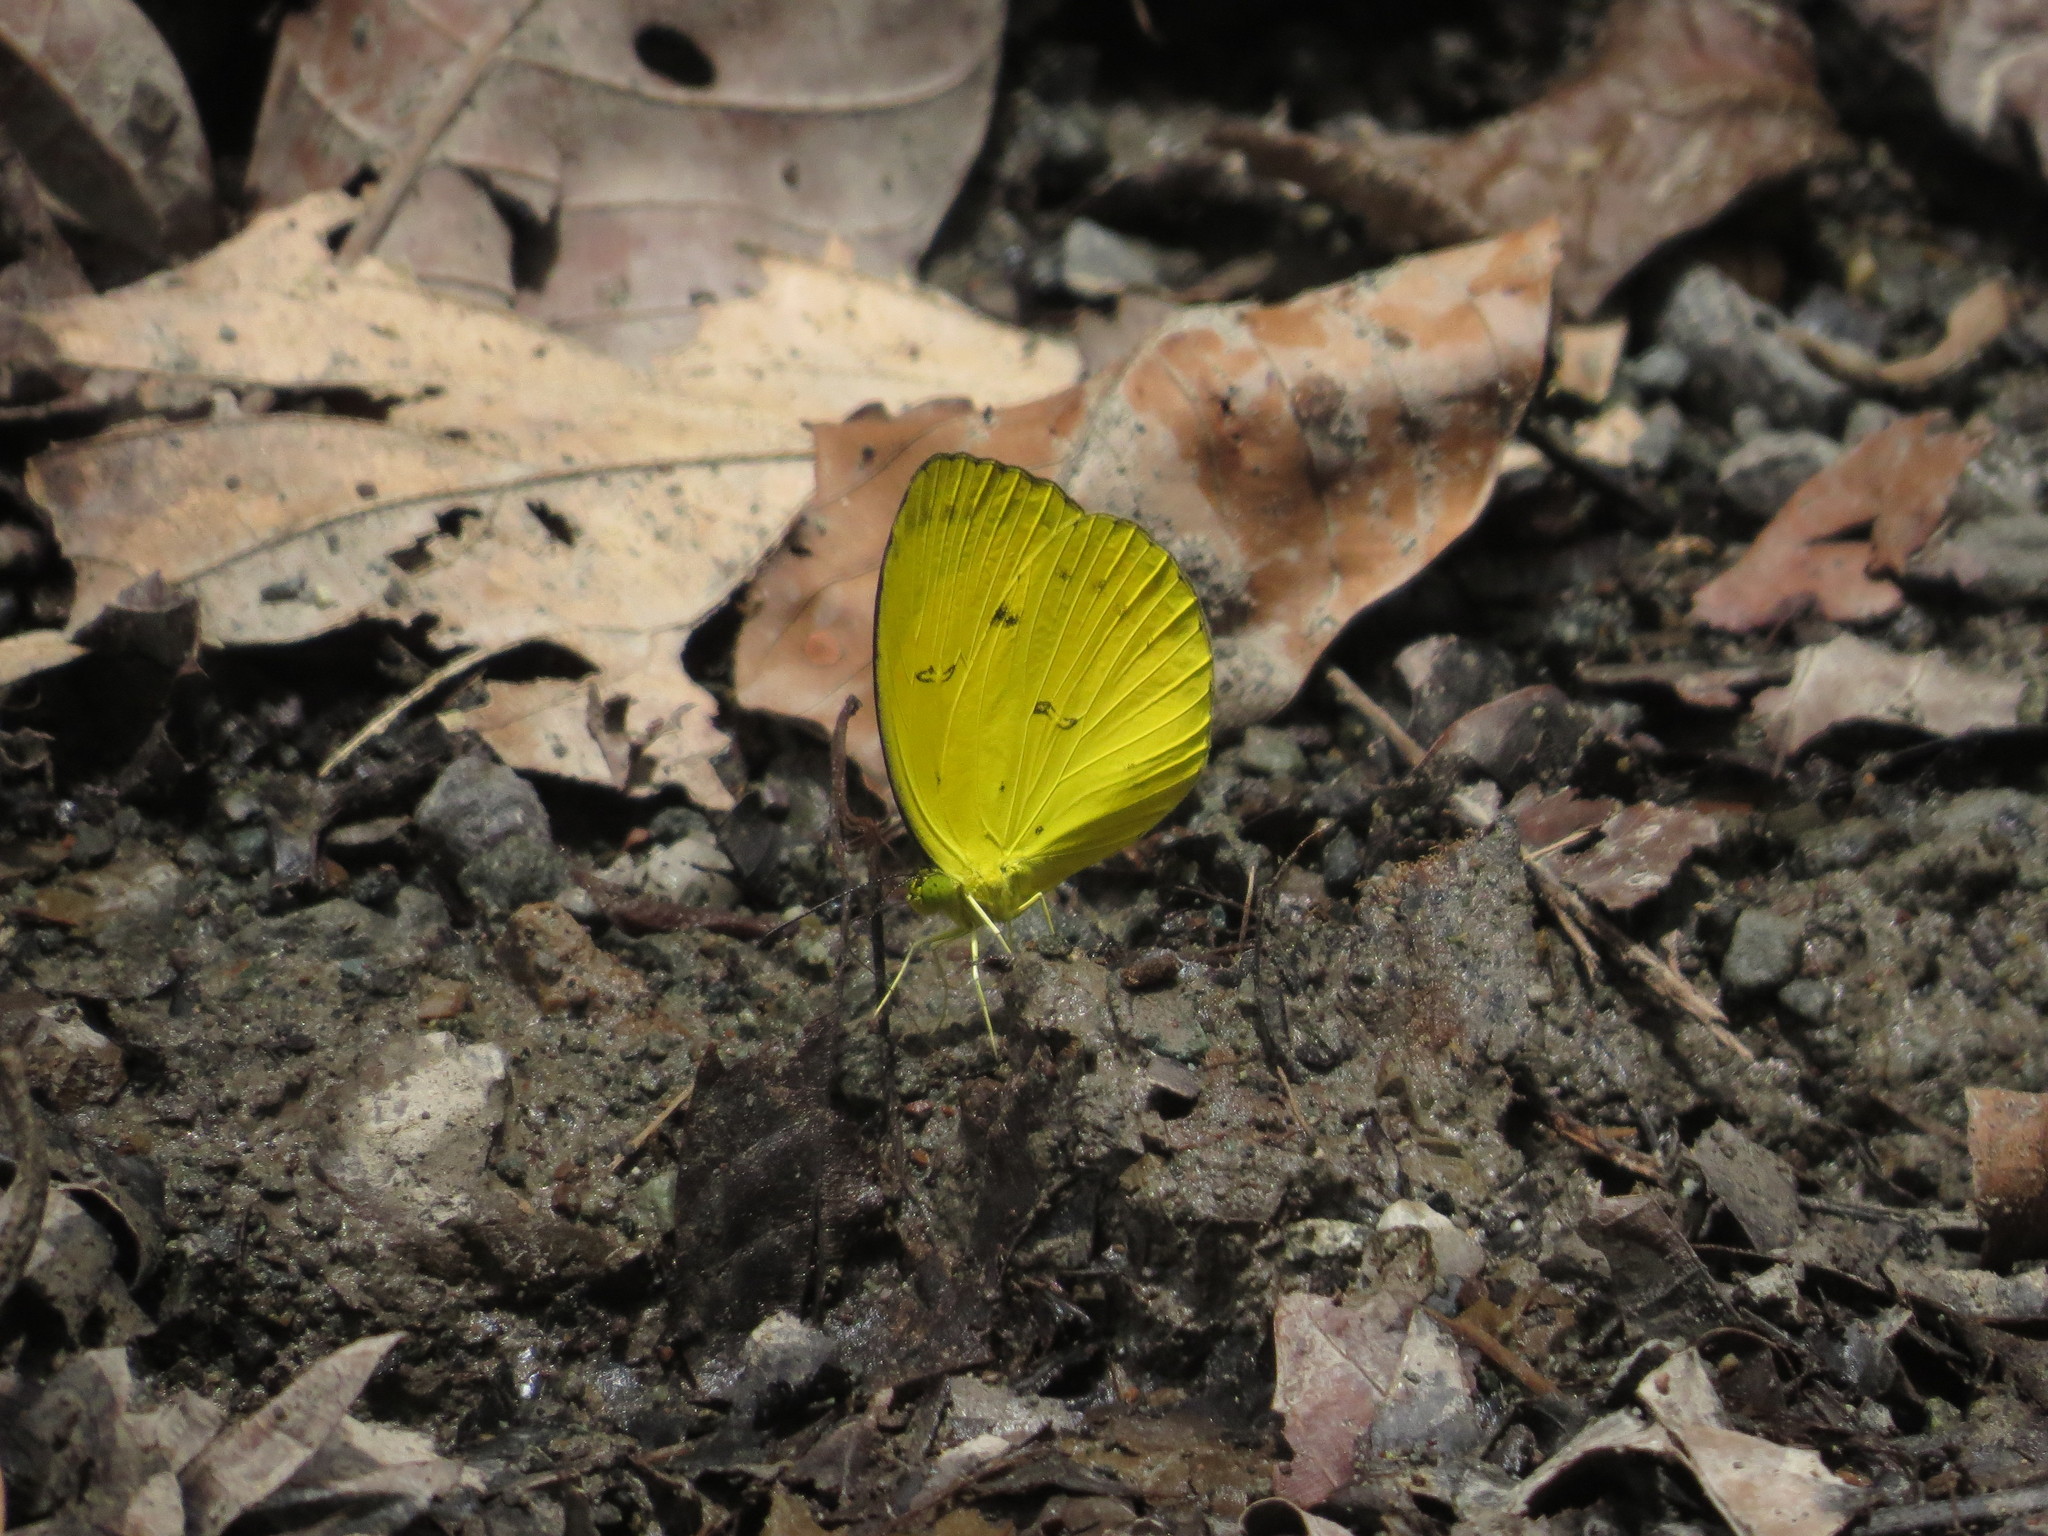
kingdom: Animalia
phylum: Arthropoda
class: Insecta
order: Lepidoptera
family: Pieridae
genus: Eurema
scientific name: Eurema nicevillei
